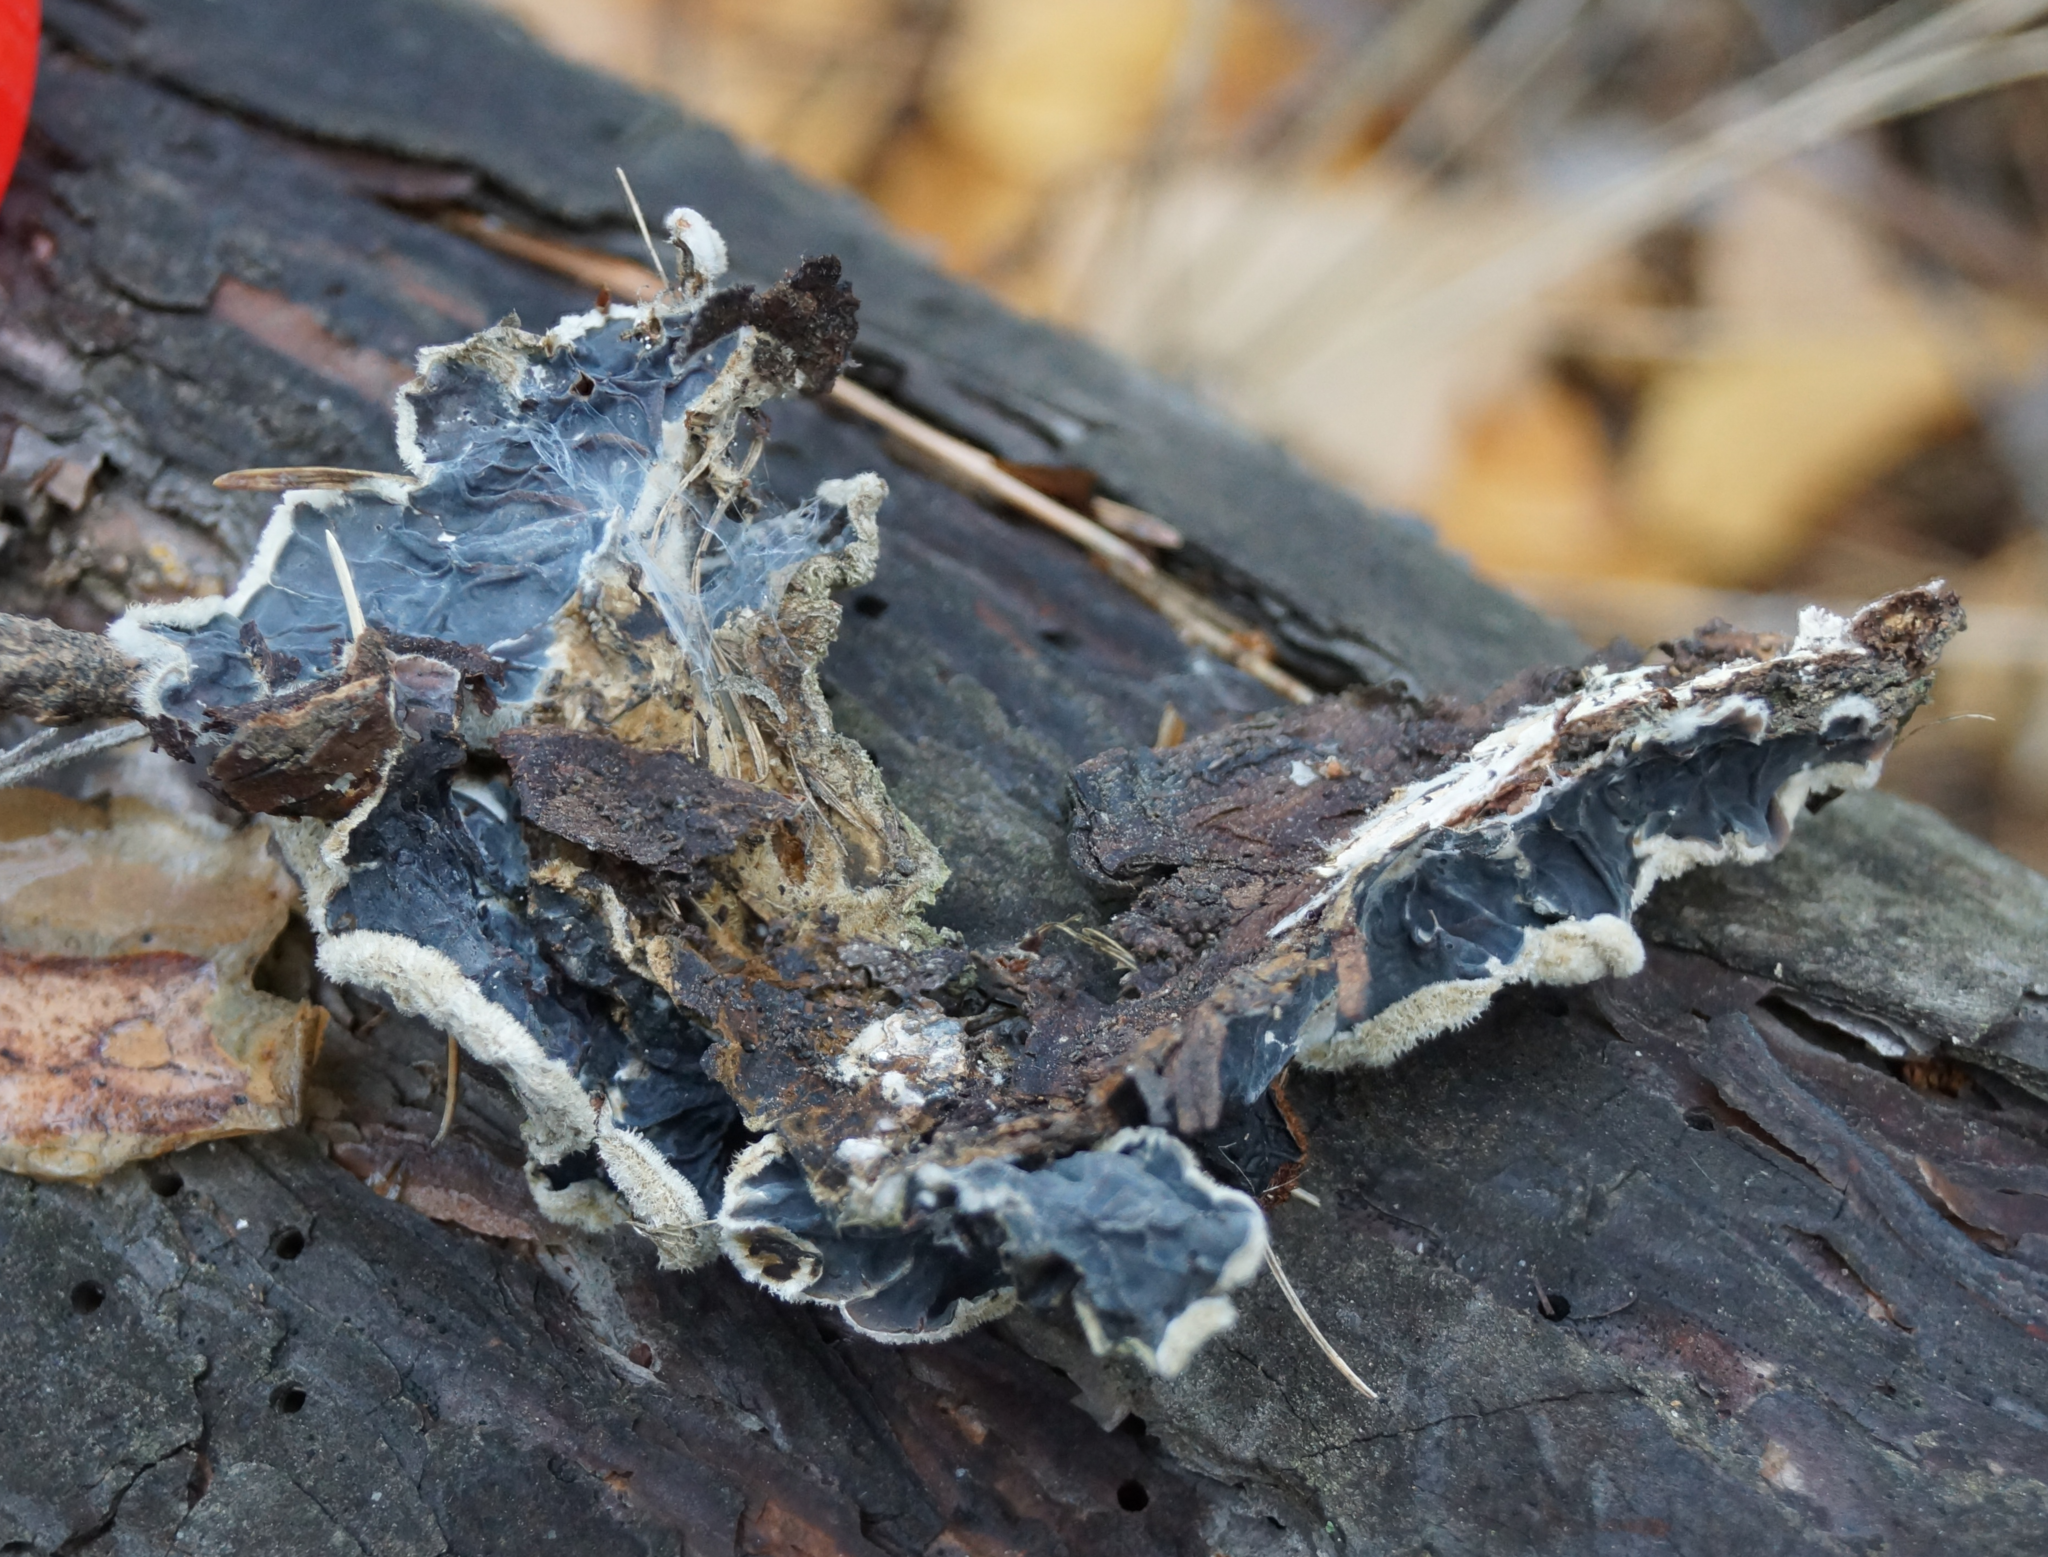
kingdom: Fungi
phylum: Basidiomycota
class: Agaricomycetes
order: Auriculariales
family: Auriculariaceae
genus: Auricularia
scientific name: Auricularia mesenterica
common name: Tripe fungus
